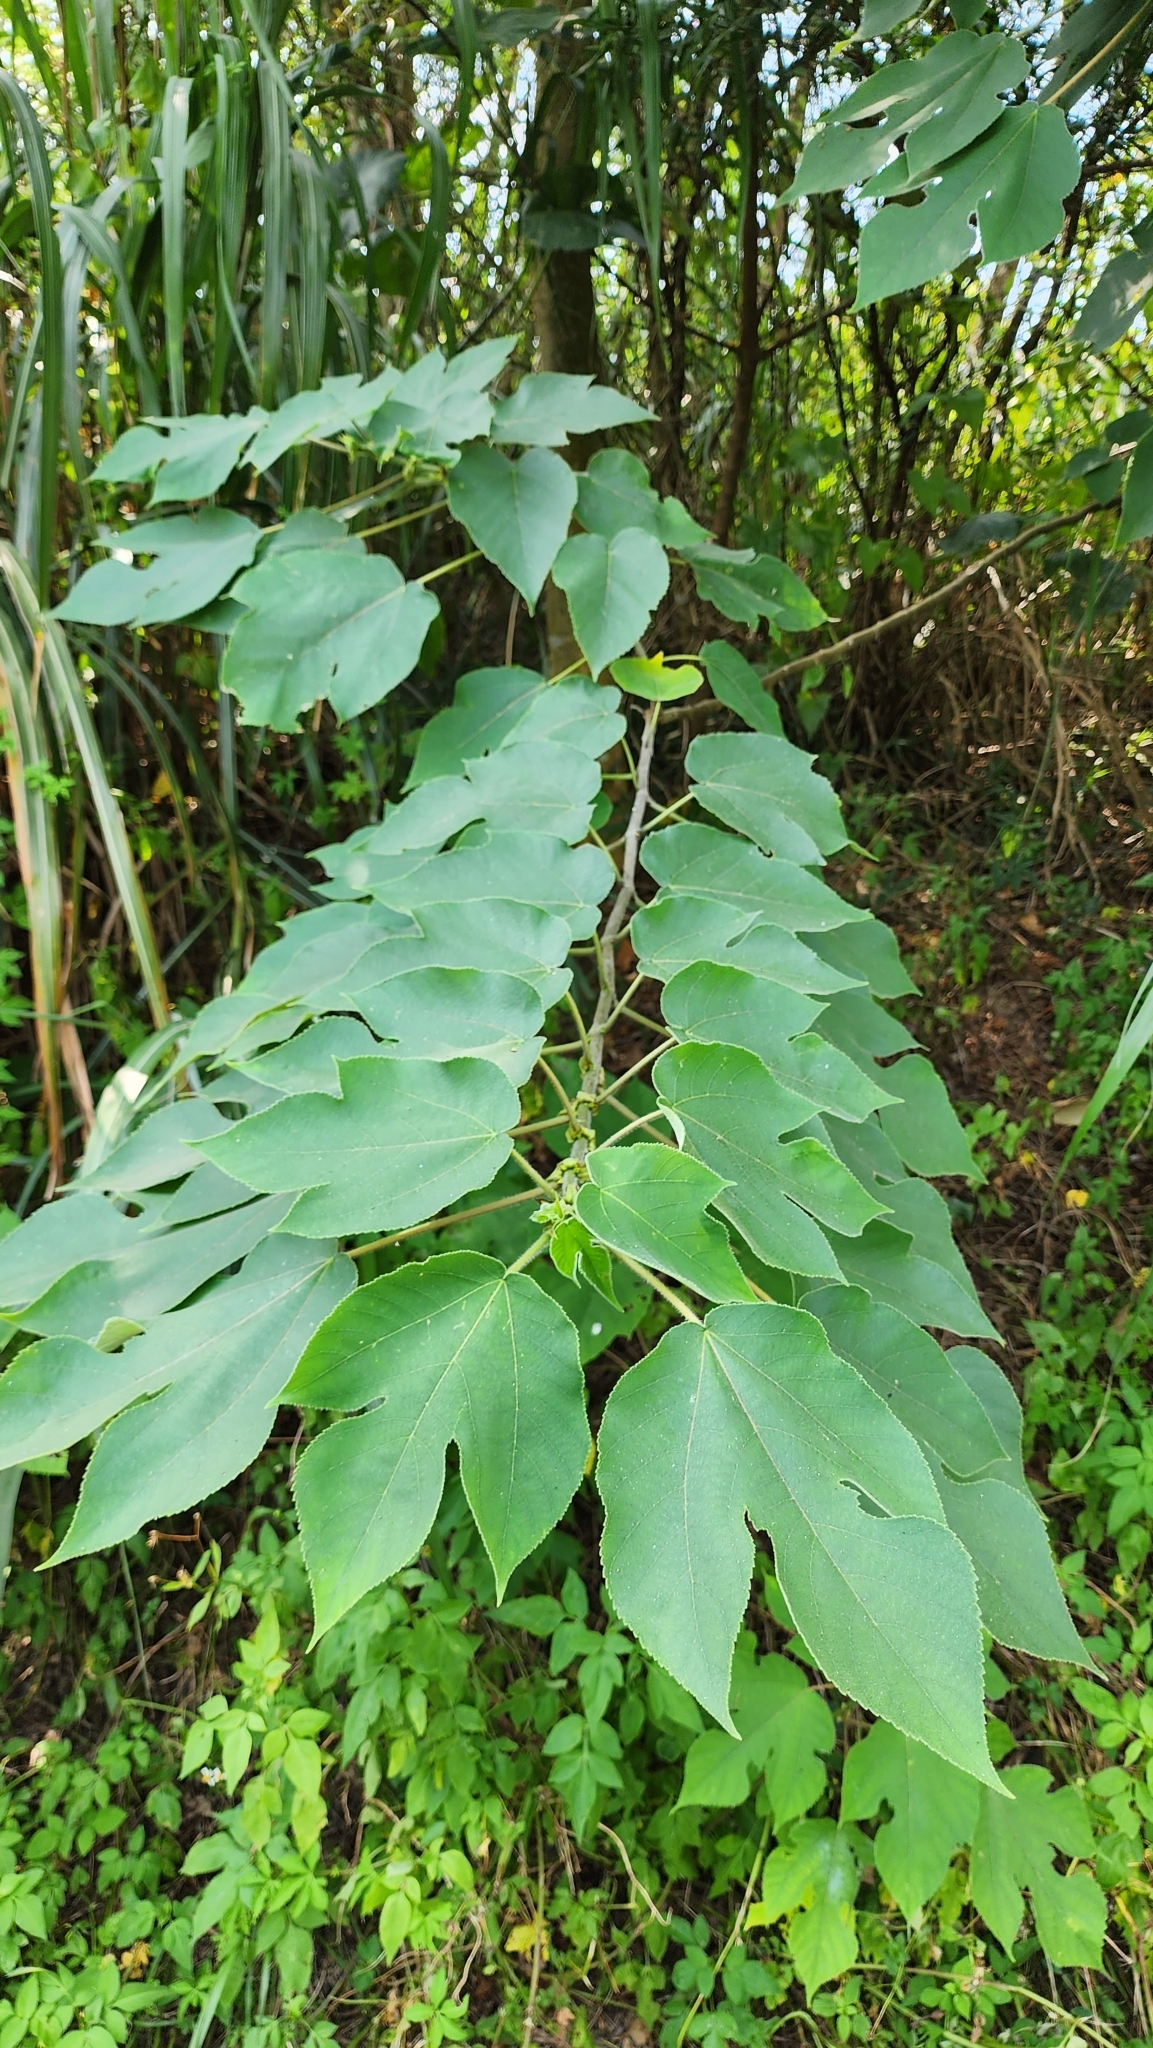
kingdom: Plantae
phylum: Tracheophyta
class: Magnoliopsida
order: Rosales
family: Moraceae
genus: Broussonetia
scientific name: Broussonetia papyrifera
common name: Paper mulberry
